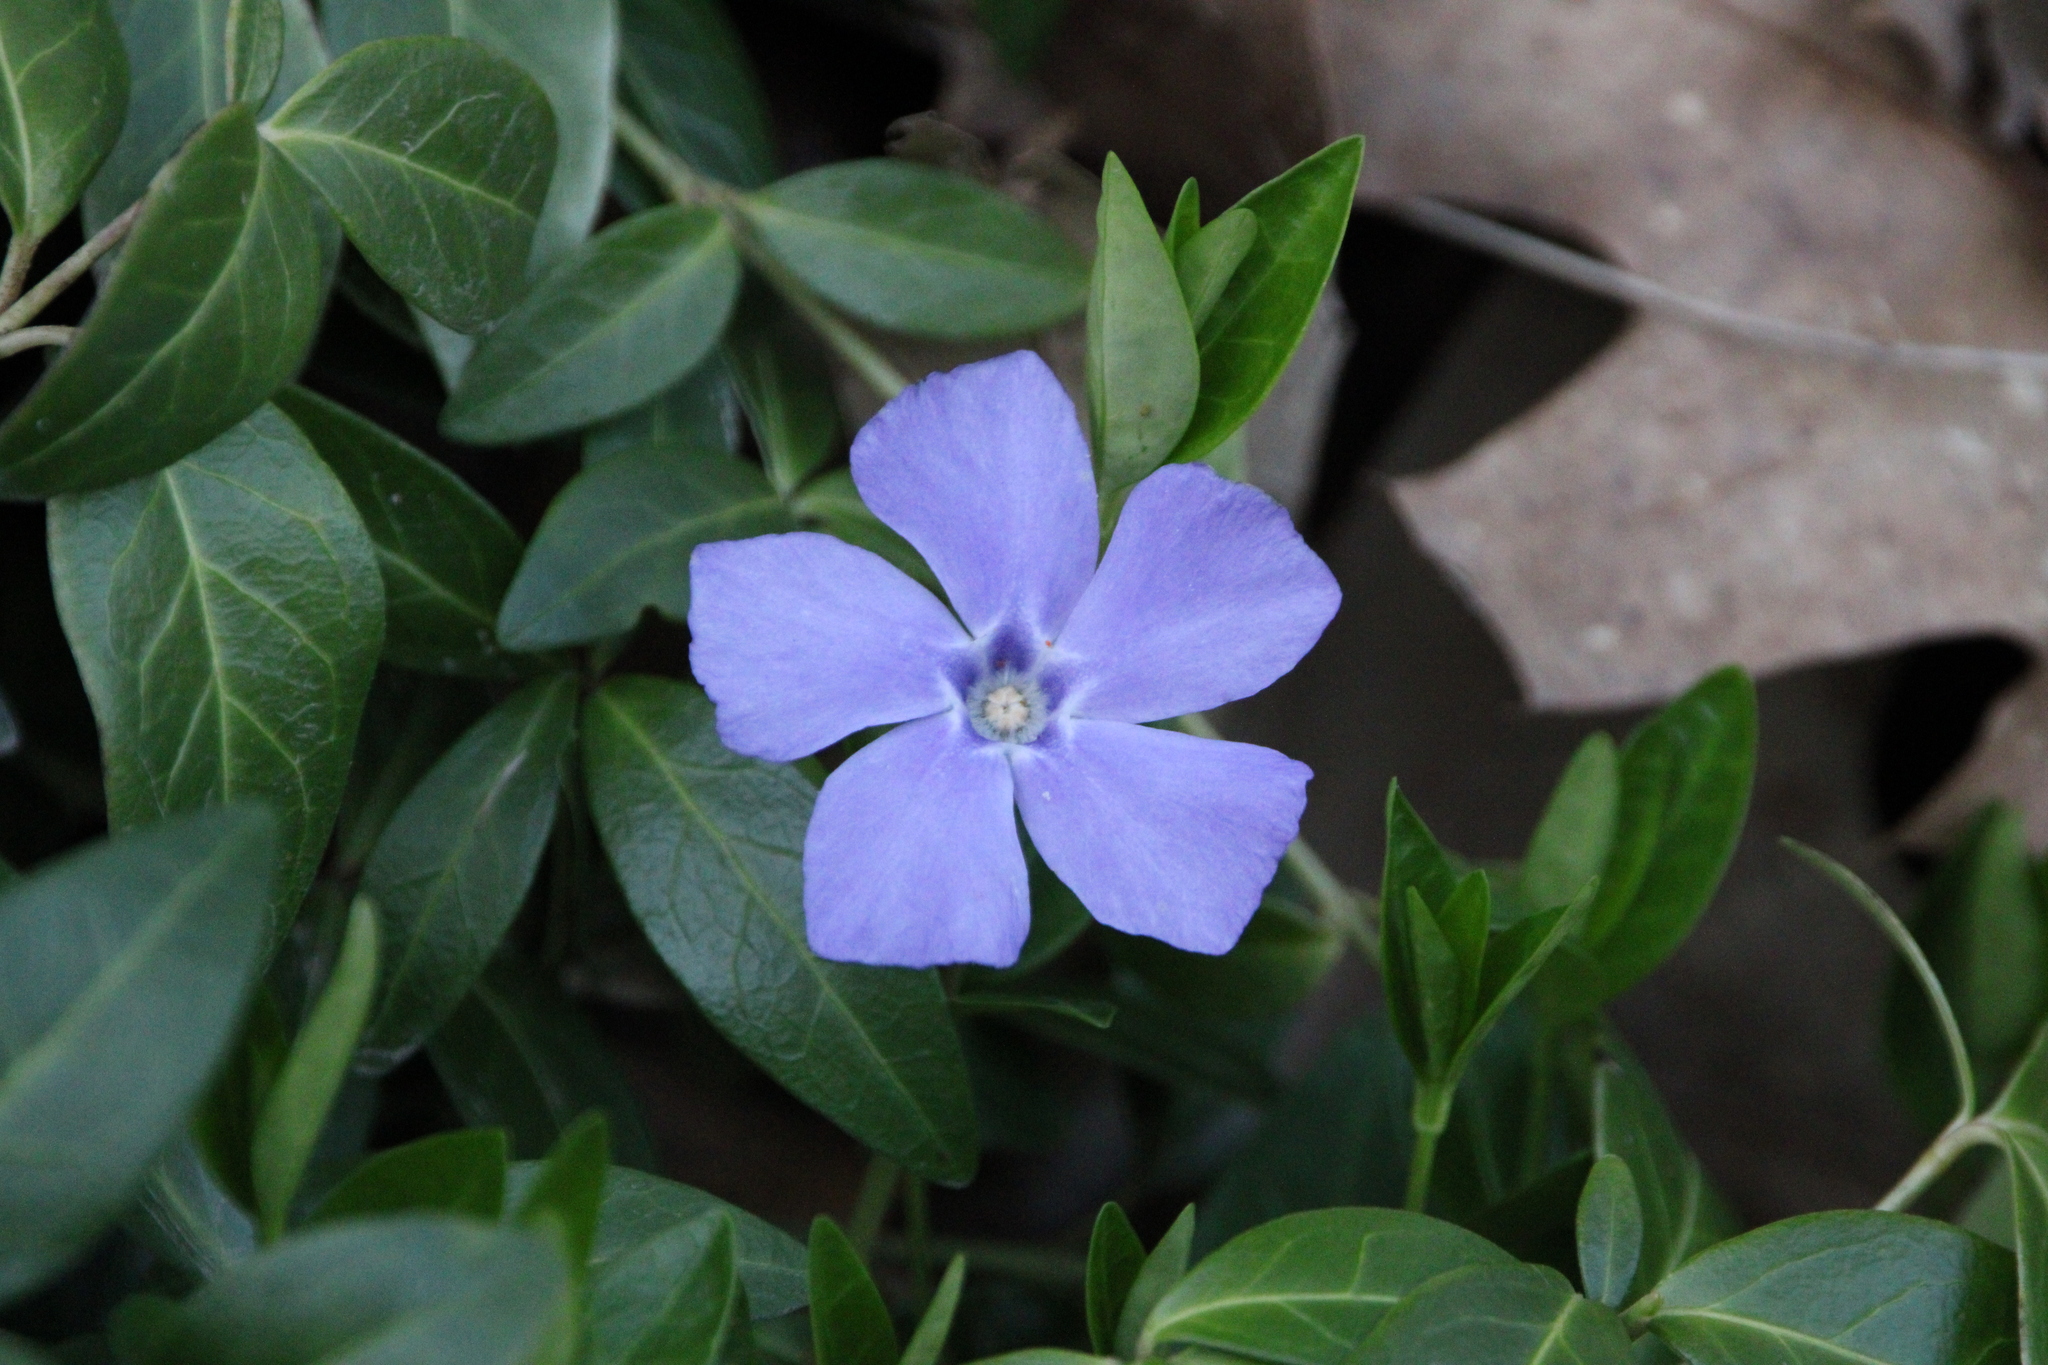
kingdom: Plantae
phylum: Tracheophyta
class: Magnoliopsida
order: Gentianales
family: Apocynaceae
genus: Vinca
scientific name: Vinca minor
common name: Lesser periwinkle
